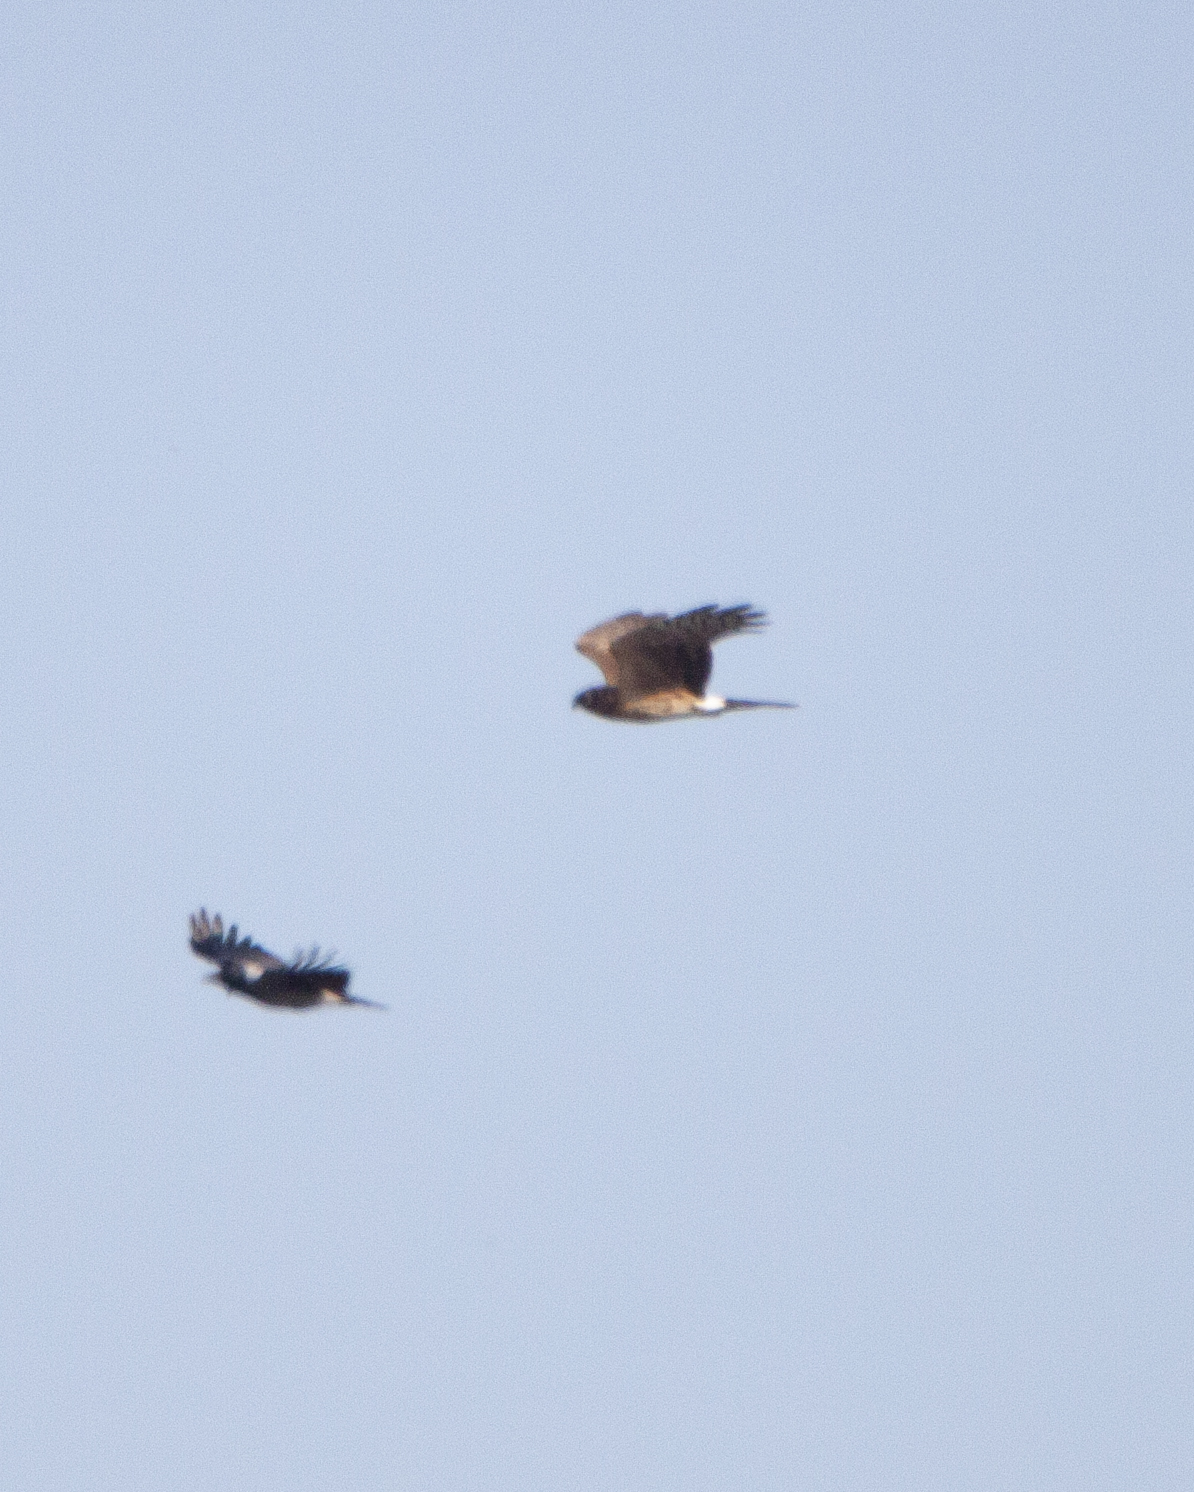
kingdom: Animalia
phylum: Chordata
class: Aves
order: Accipitriformes
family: Accipitridae
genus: Circus
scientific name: Circus cyaneus
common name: Hen harrier
